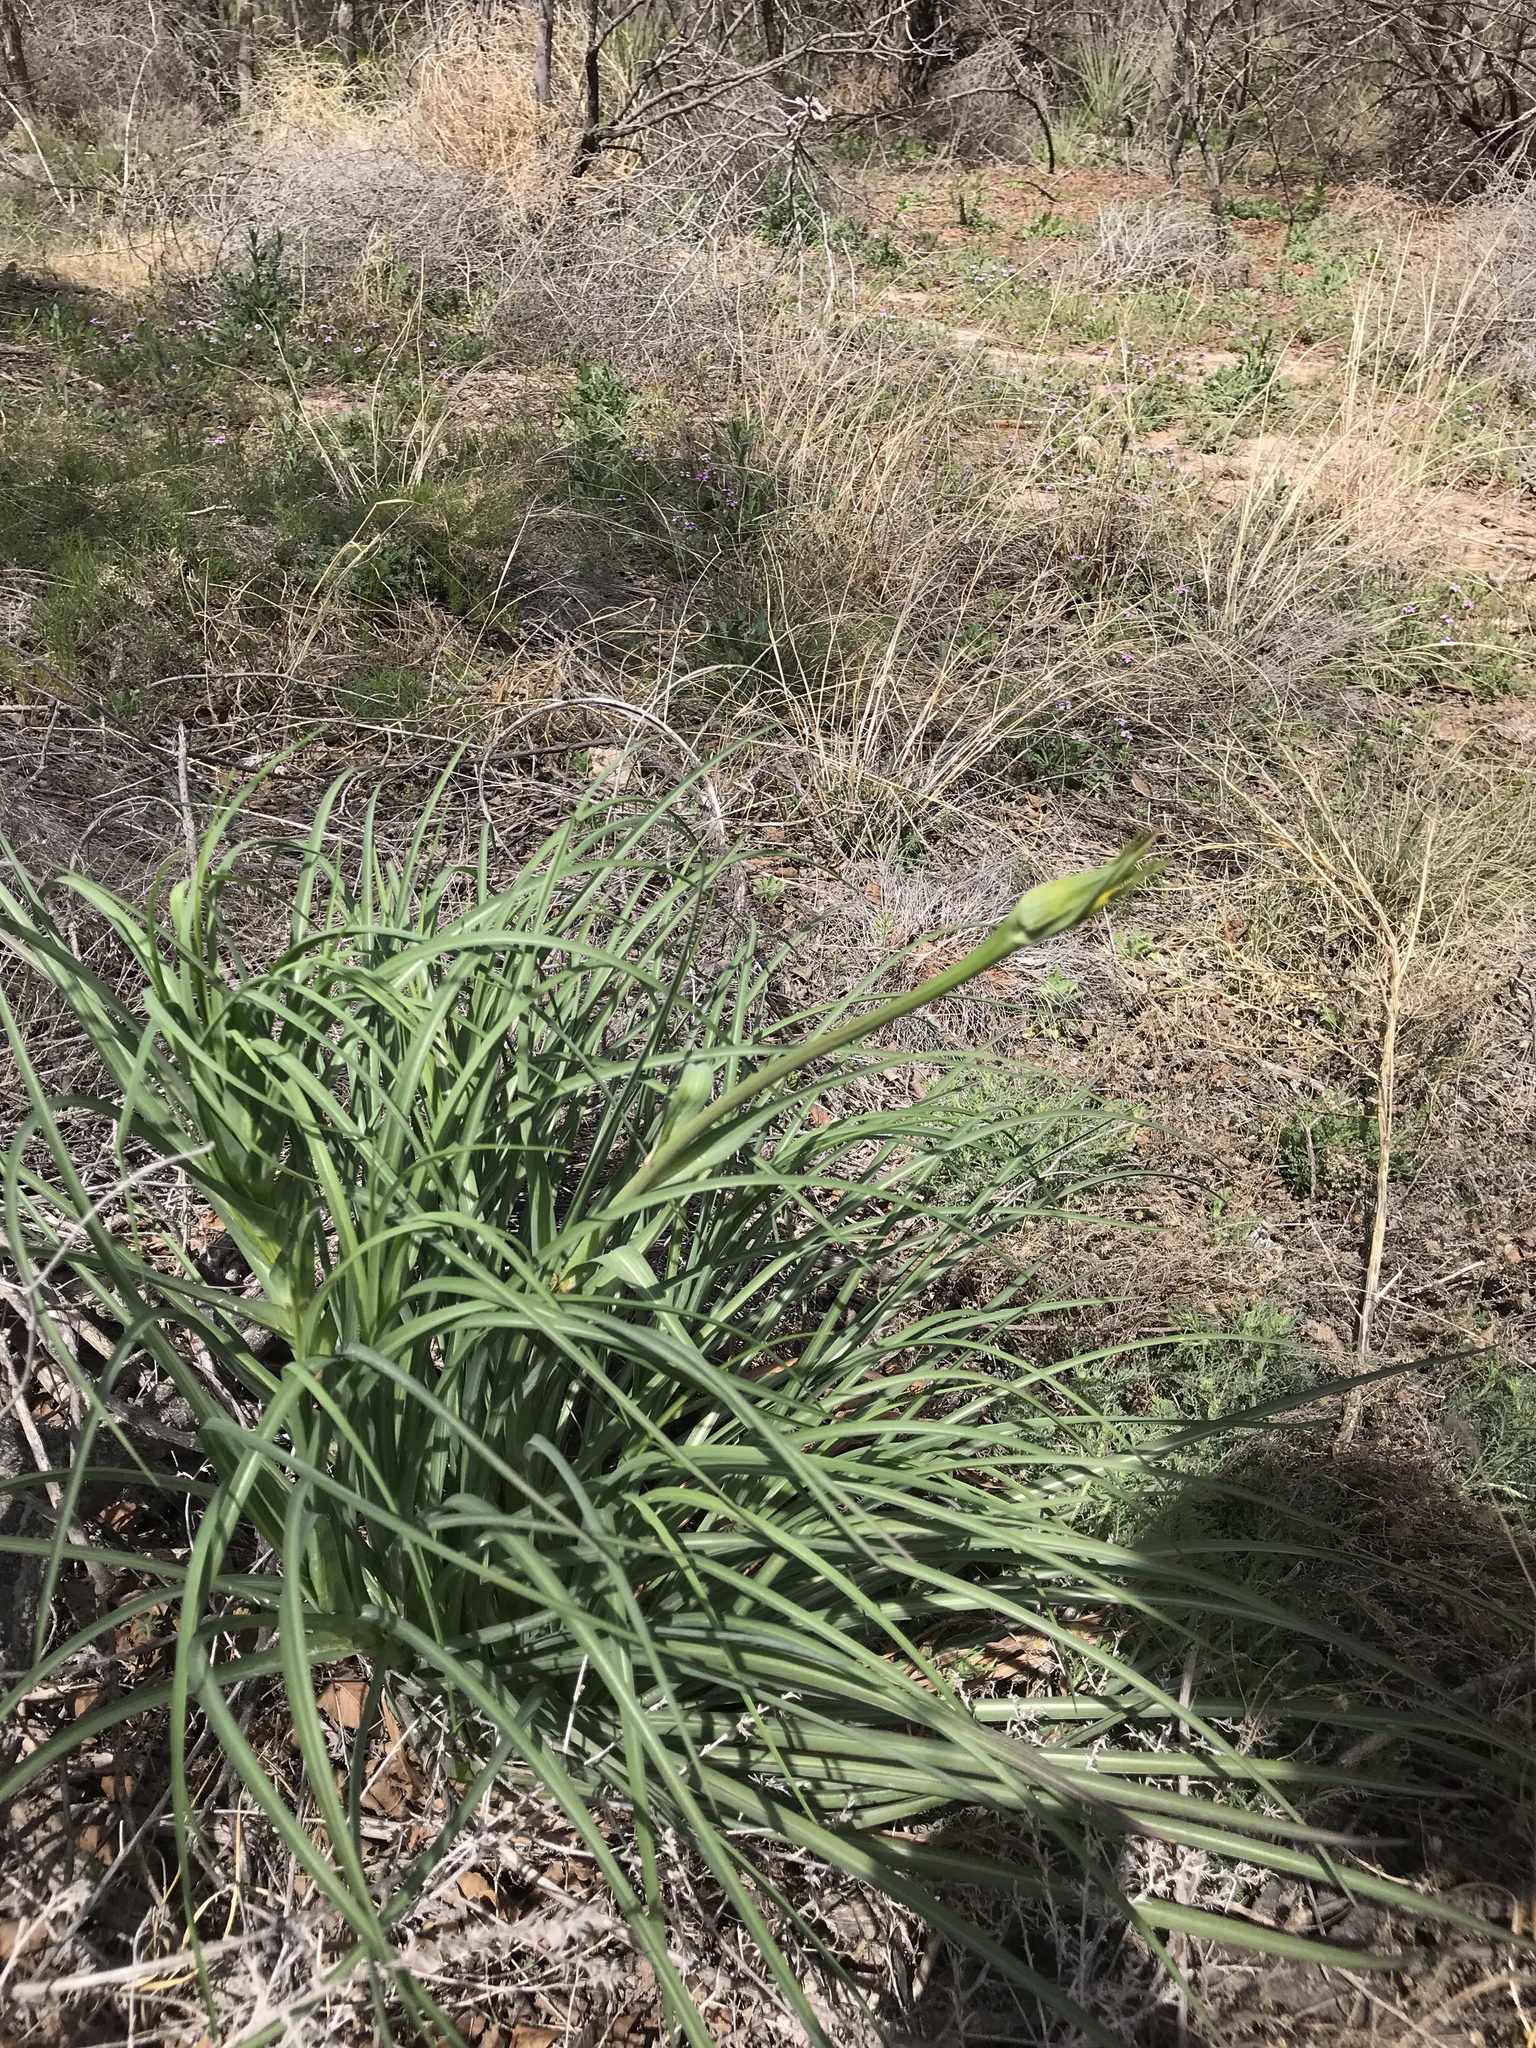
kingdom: Plantae
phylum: Tracheophyta
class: Magnoliopsida
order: Asterales
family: Asteraceae
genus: Tragopogon
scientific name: Tragopogon dubius
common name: Yellow salsify
